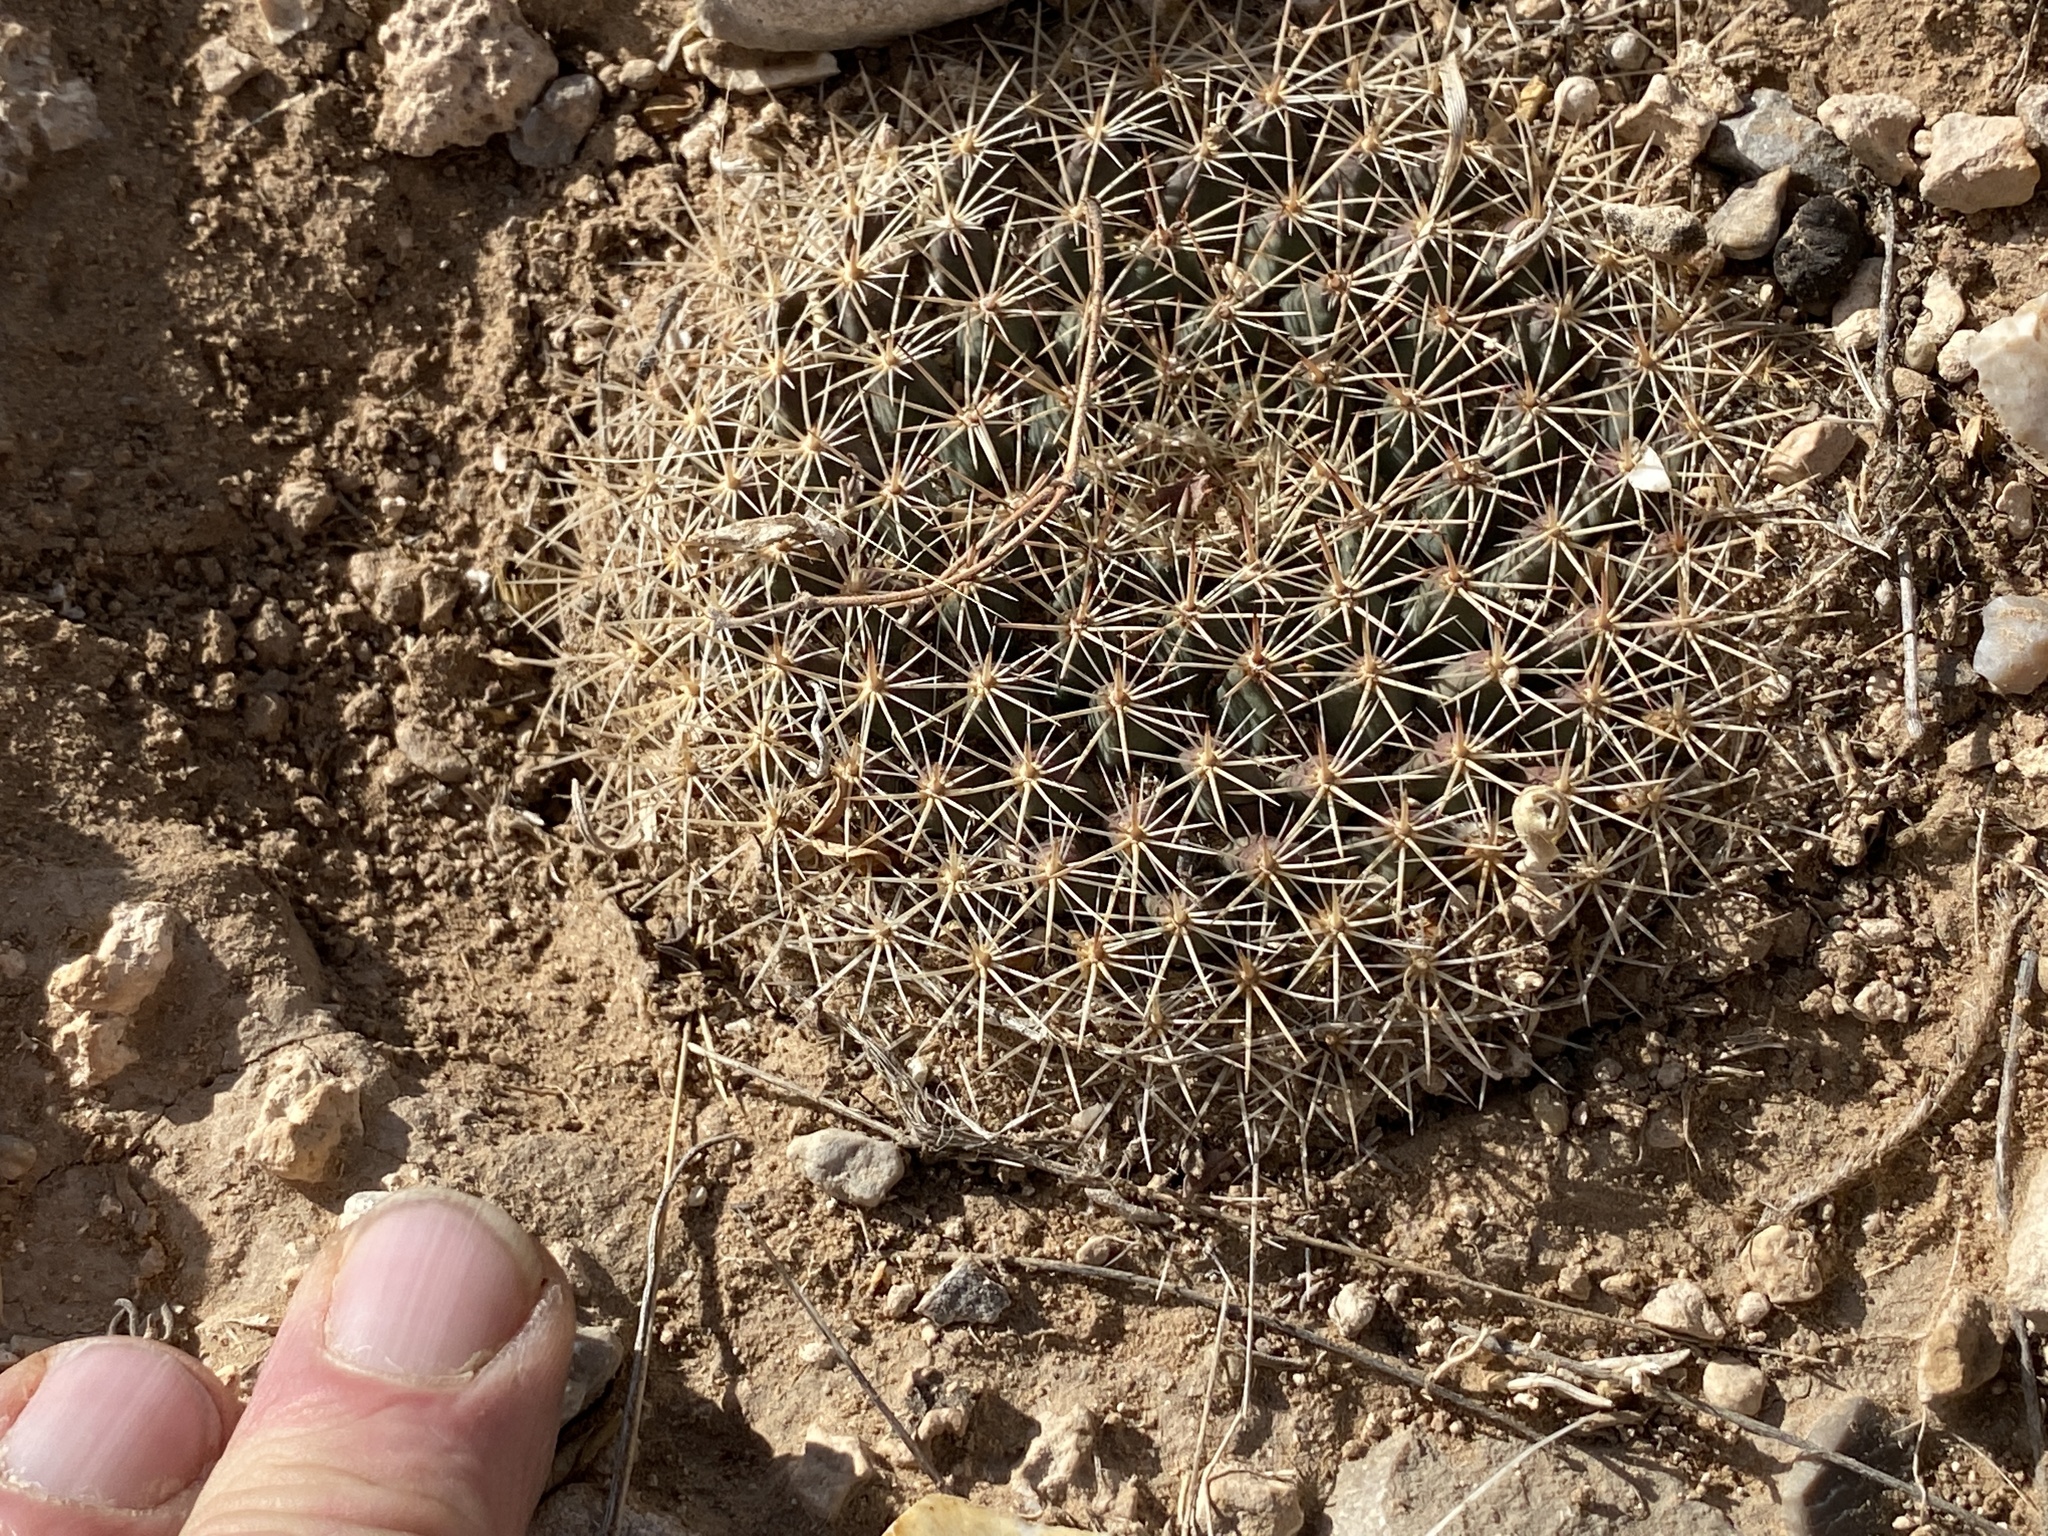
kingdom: Plantae
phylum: Tracheophyta
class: Magnoliopsida
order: Caryophyllales
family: Cactaceae
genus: Mammillaria
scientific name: Mammillaria heyderi
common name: Little nipple cactus
